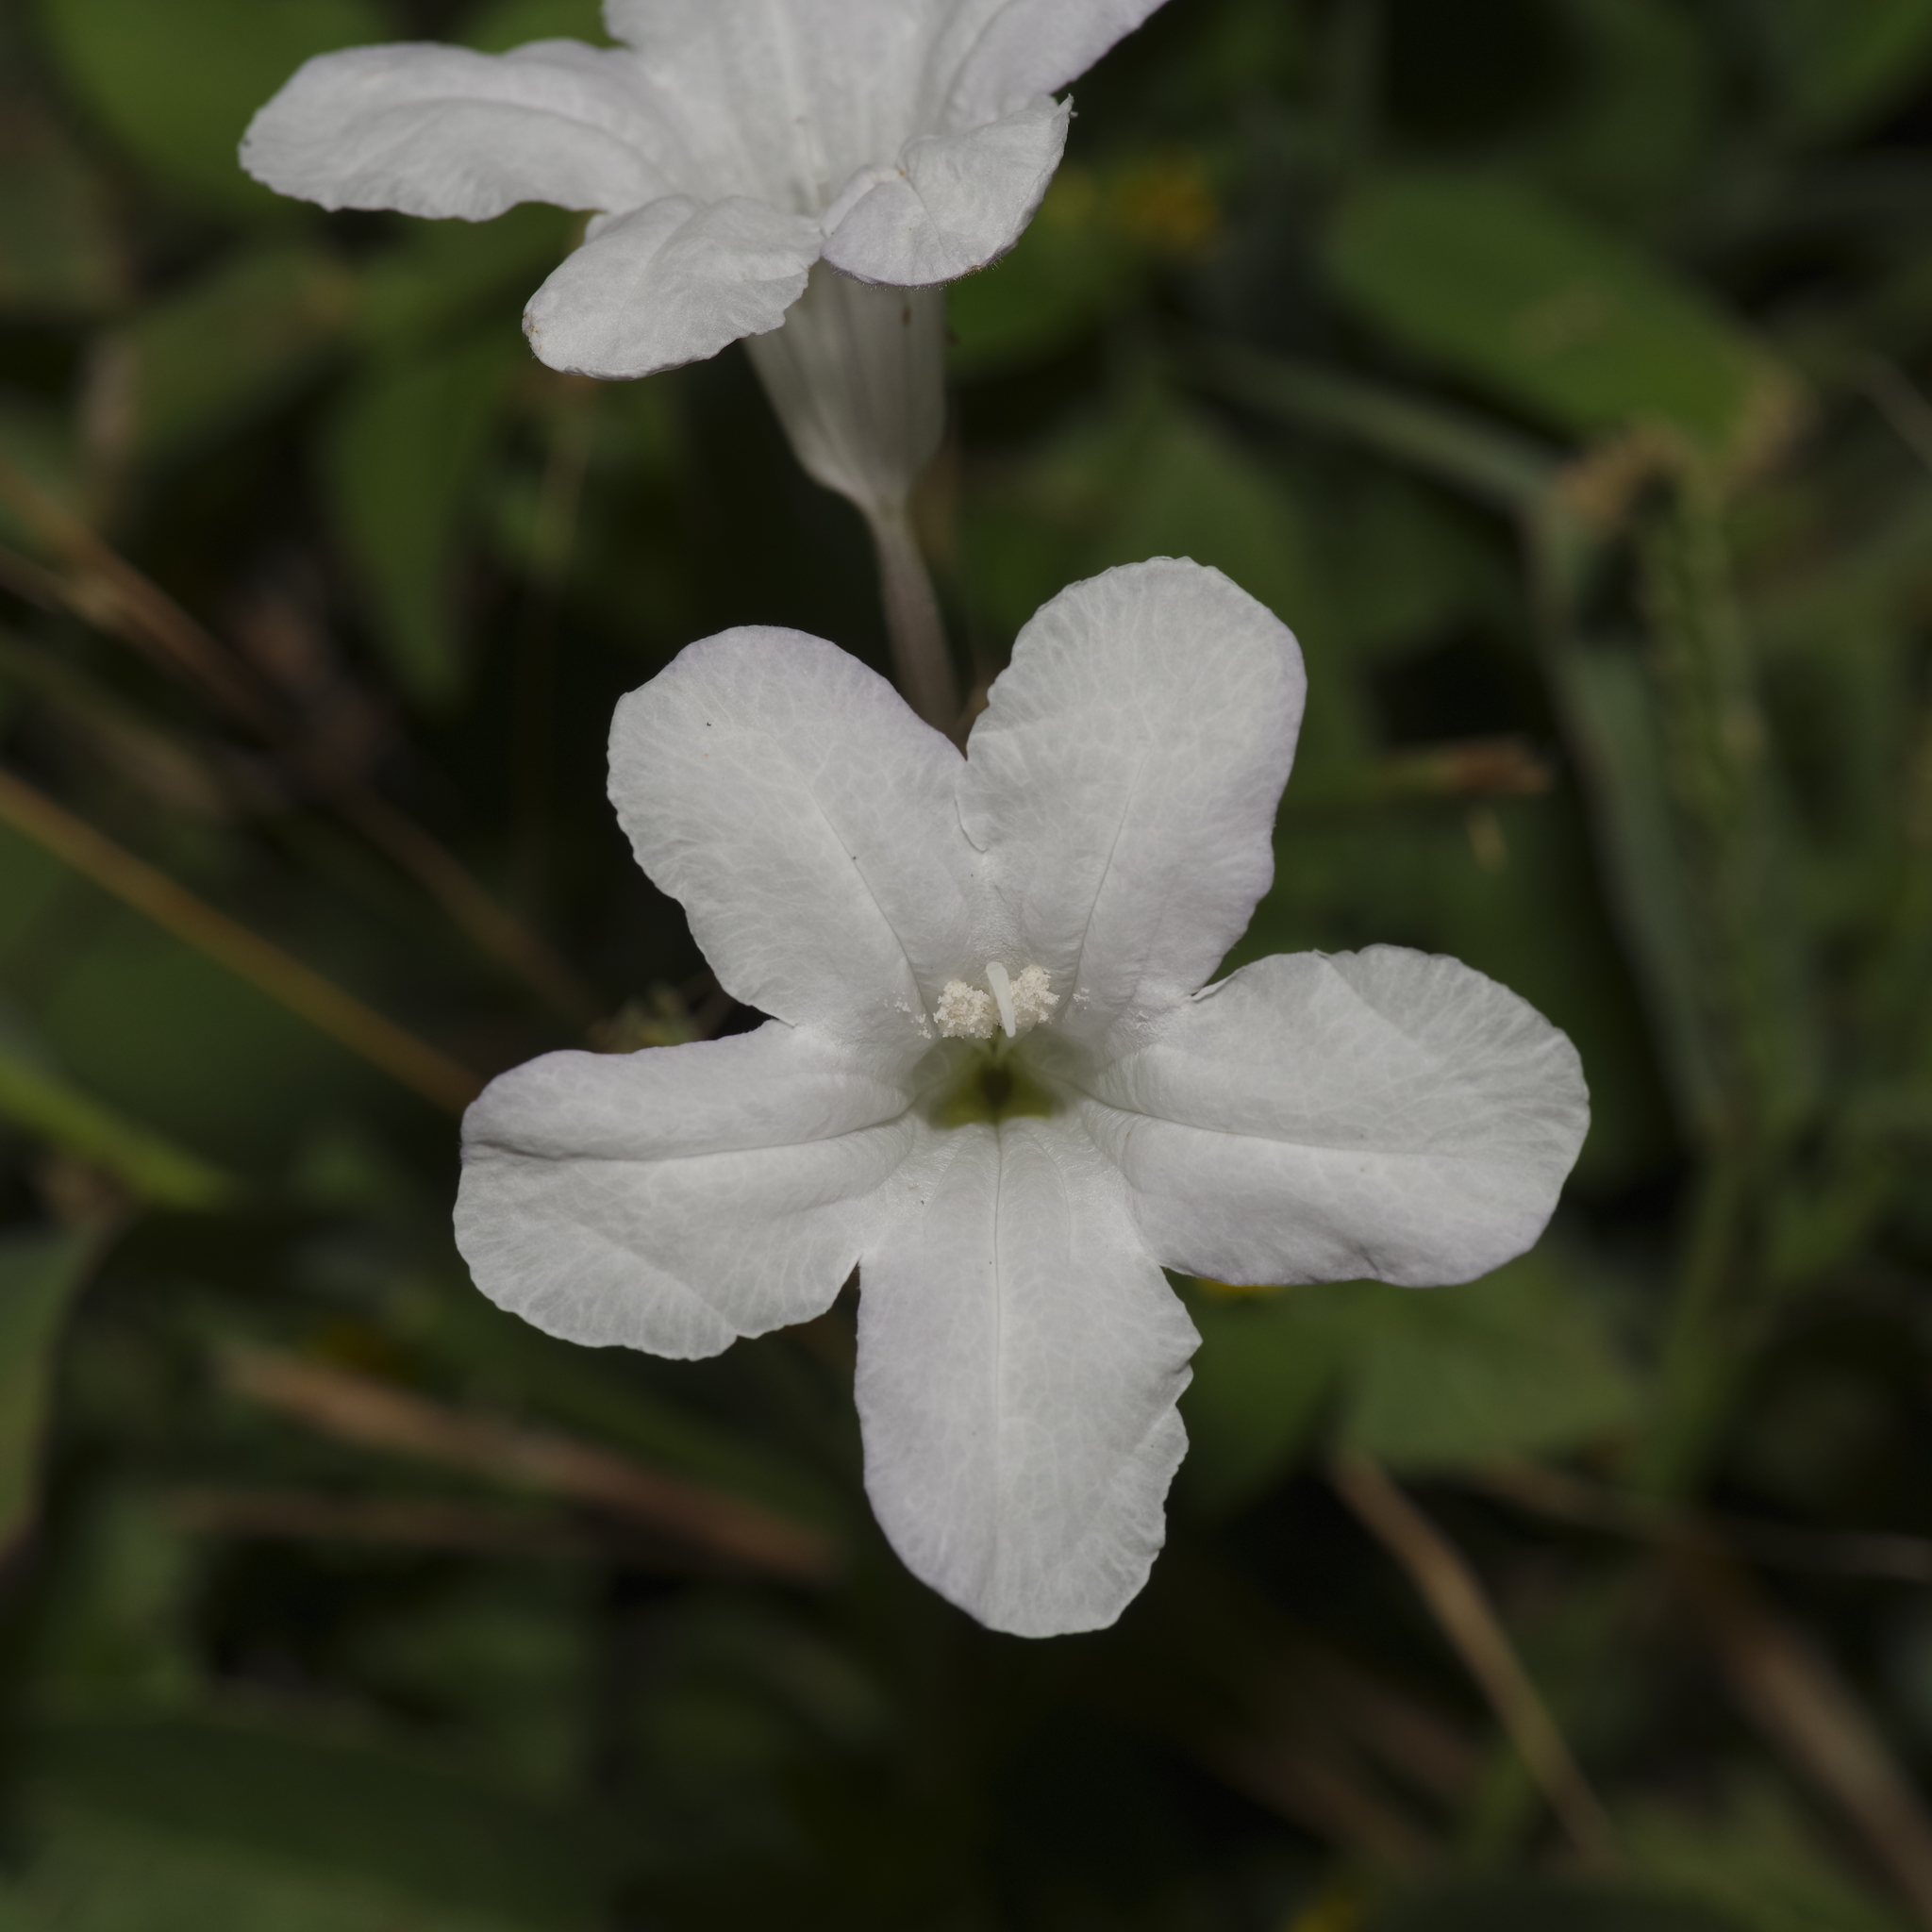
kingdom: Plantae
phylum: Tracheophyta
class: Magnoliopsida
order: Lamiales
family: Acanthaceae
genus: Ruellia
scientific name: Ruellia metziae
